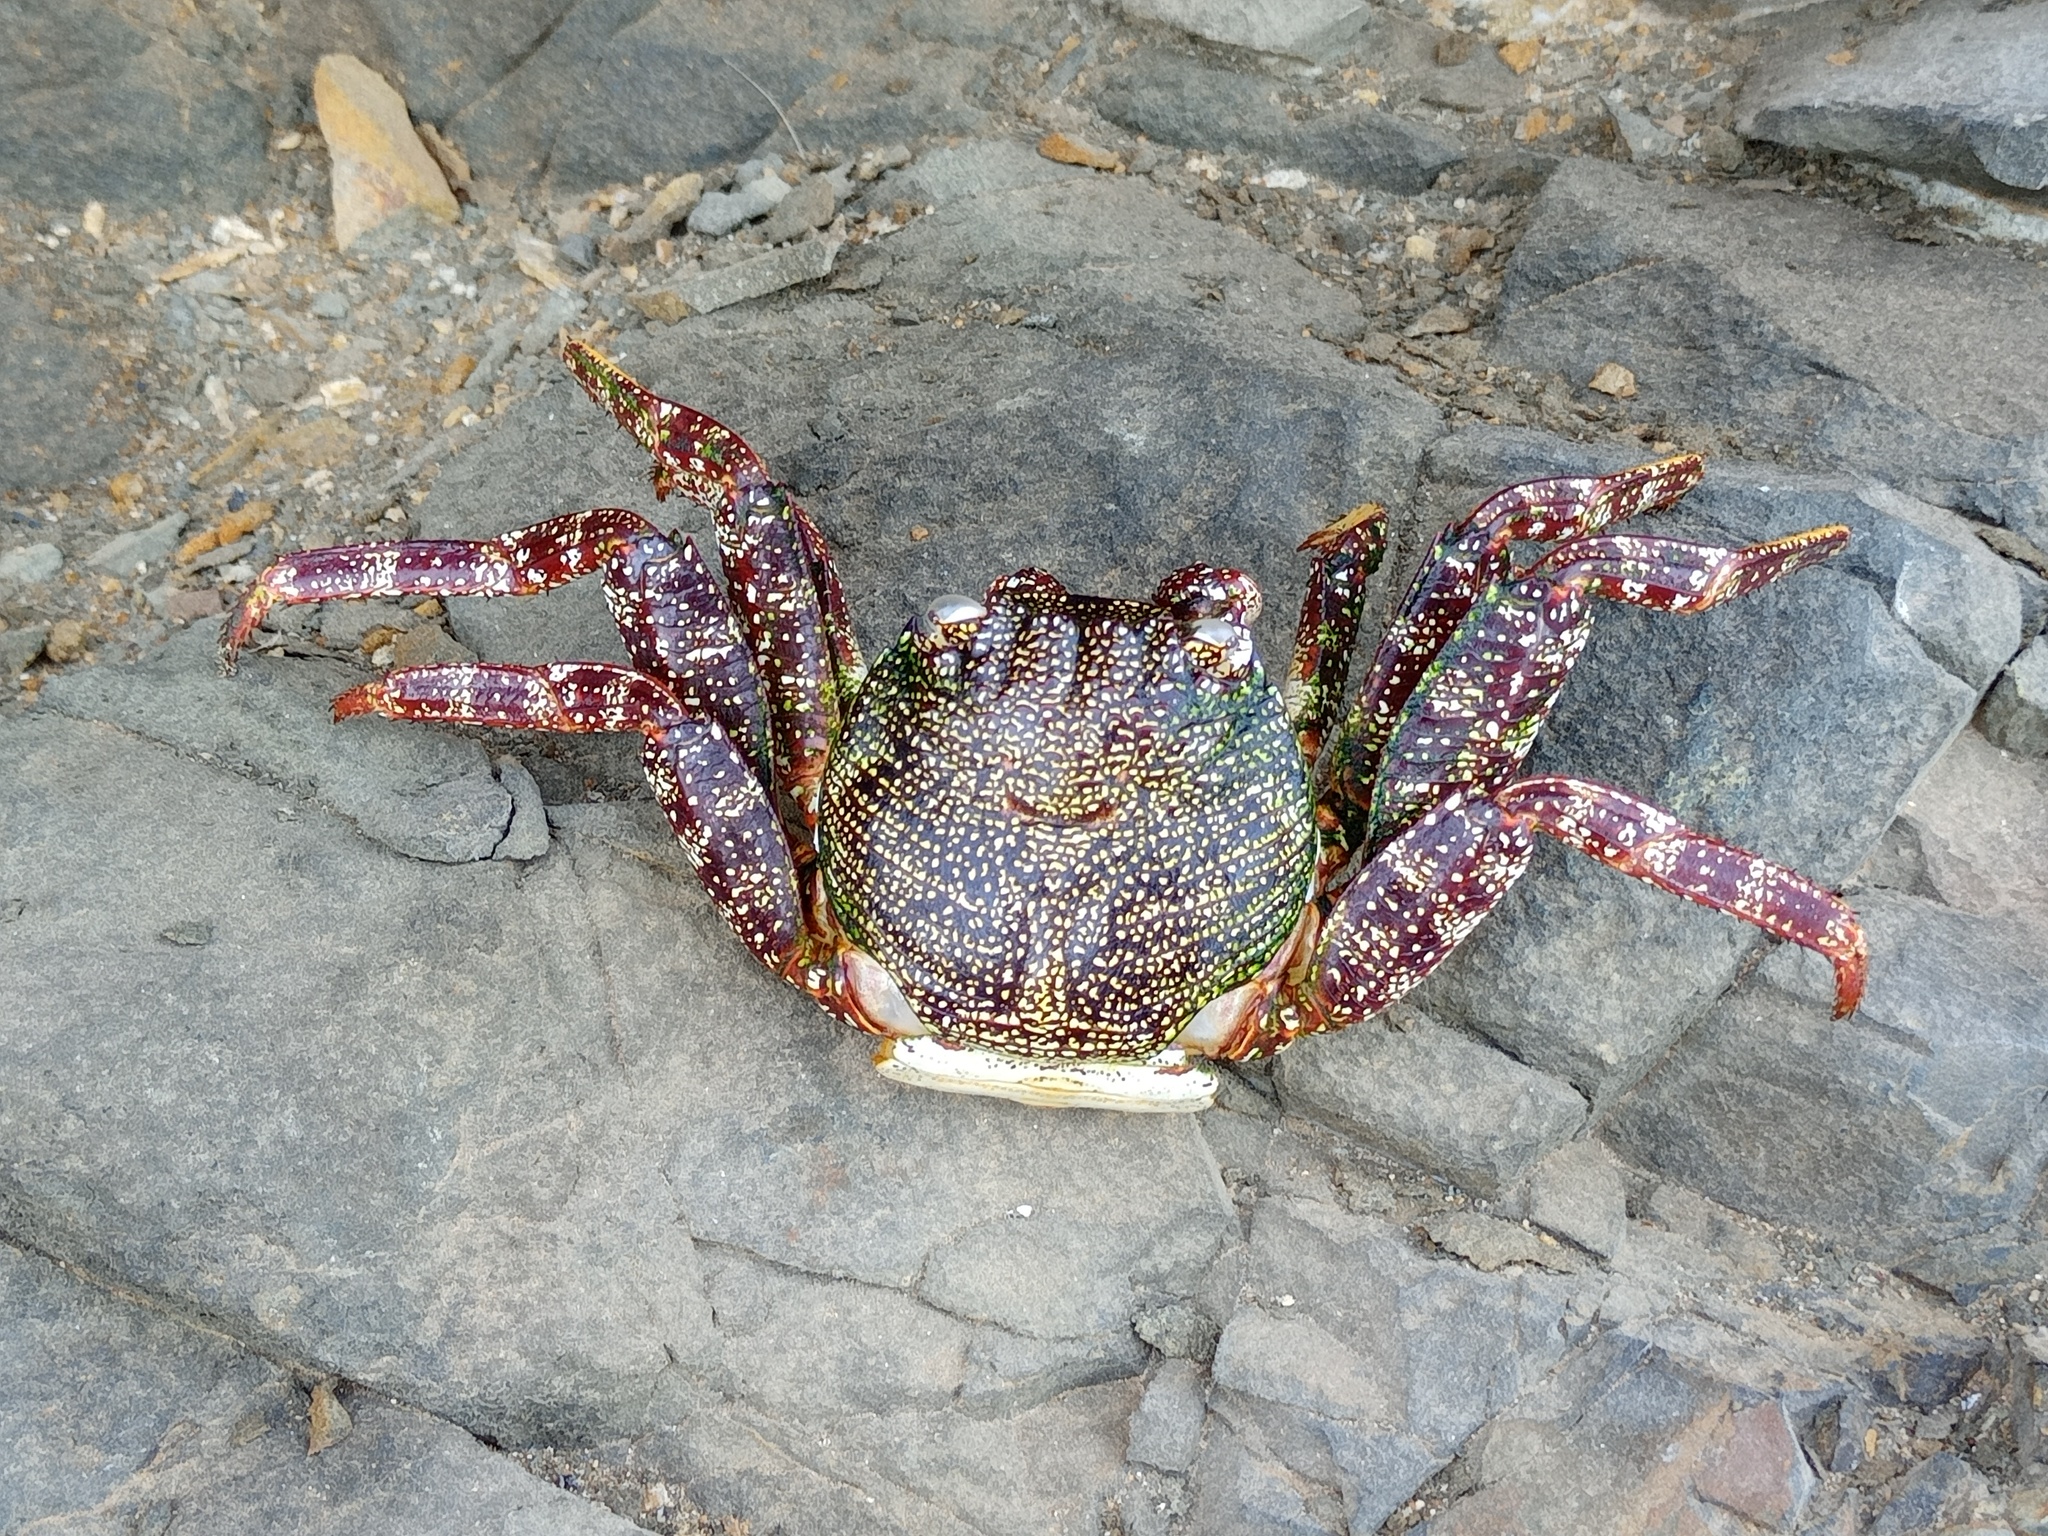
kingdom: Animalia
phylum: Arthropoda
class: Malacostraca
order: Decapoda
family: Grapsidae
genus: Grapsus
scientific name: Grapsus adscensionis
